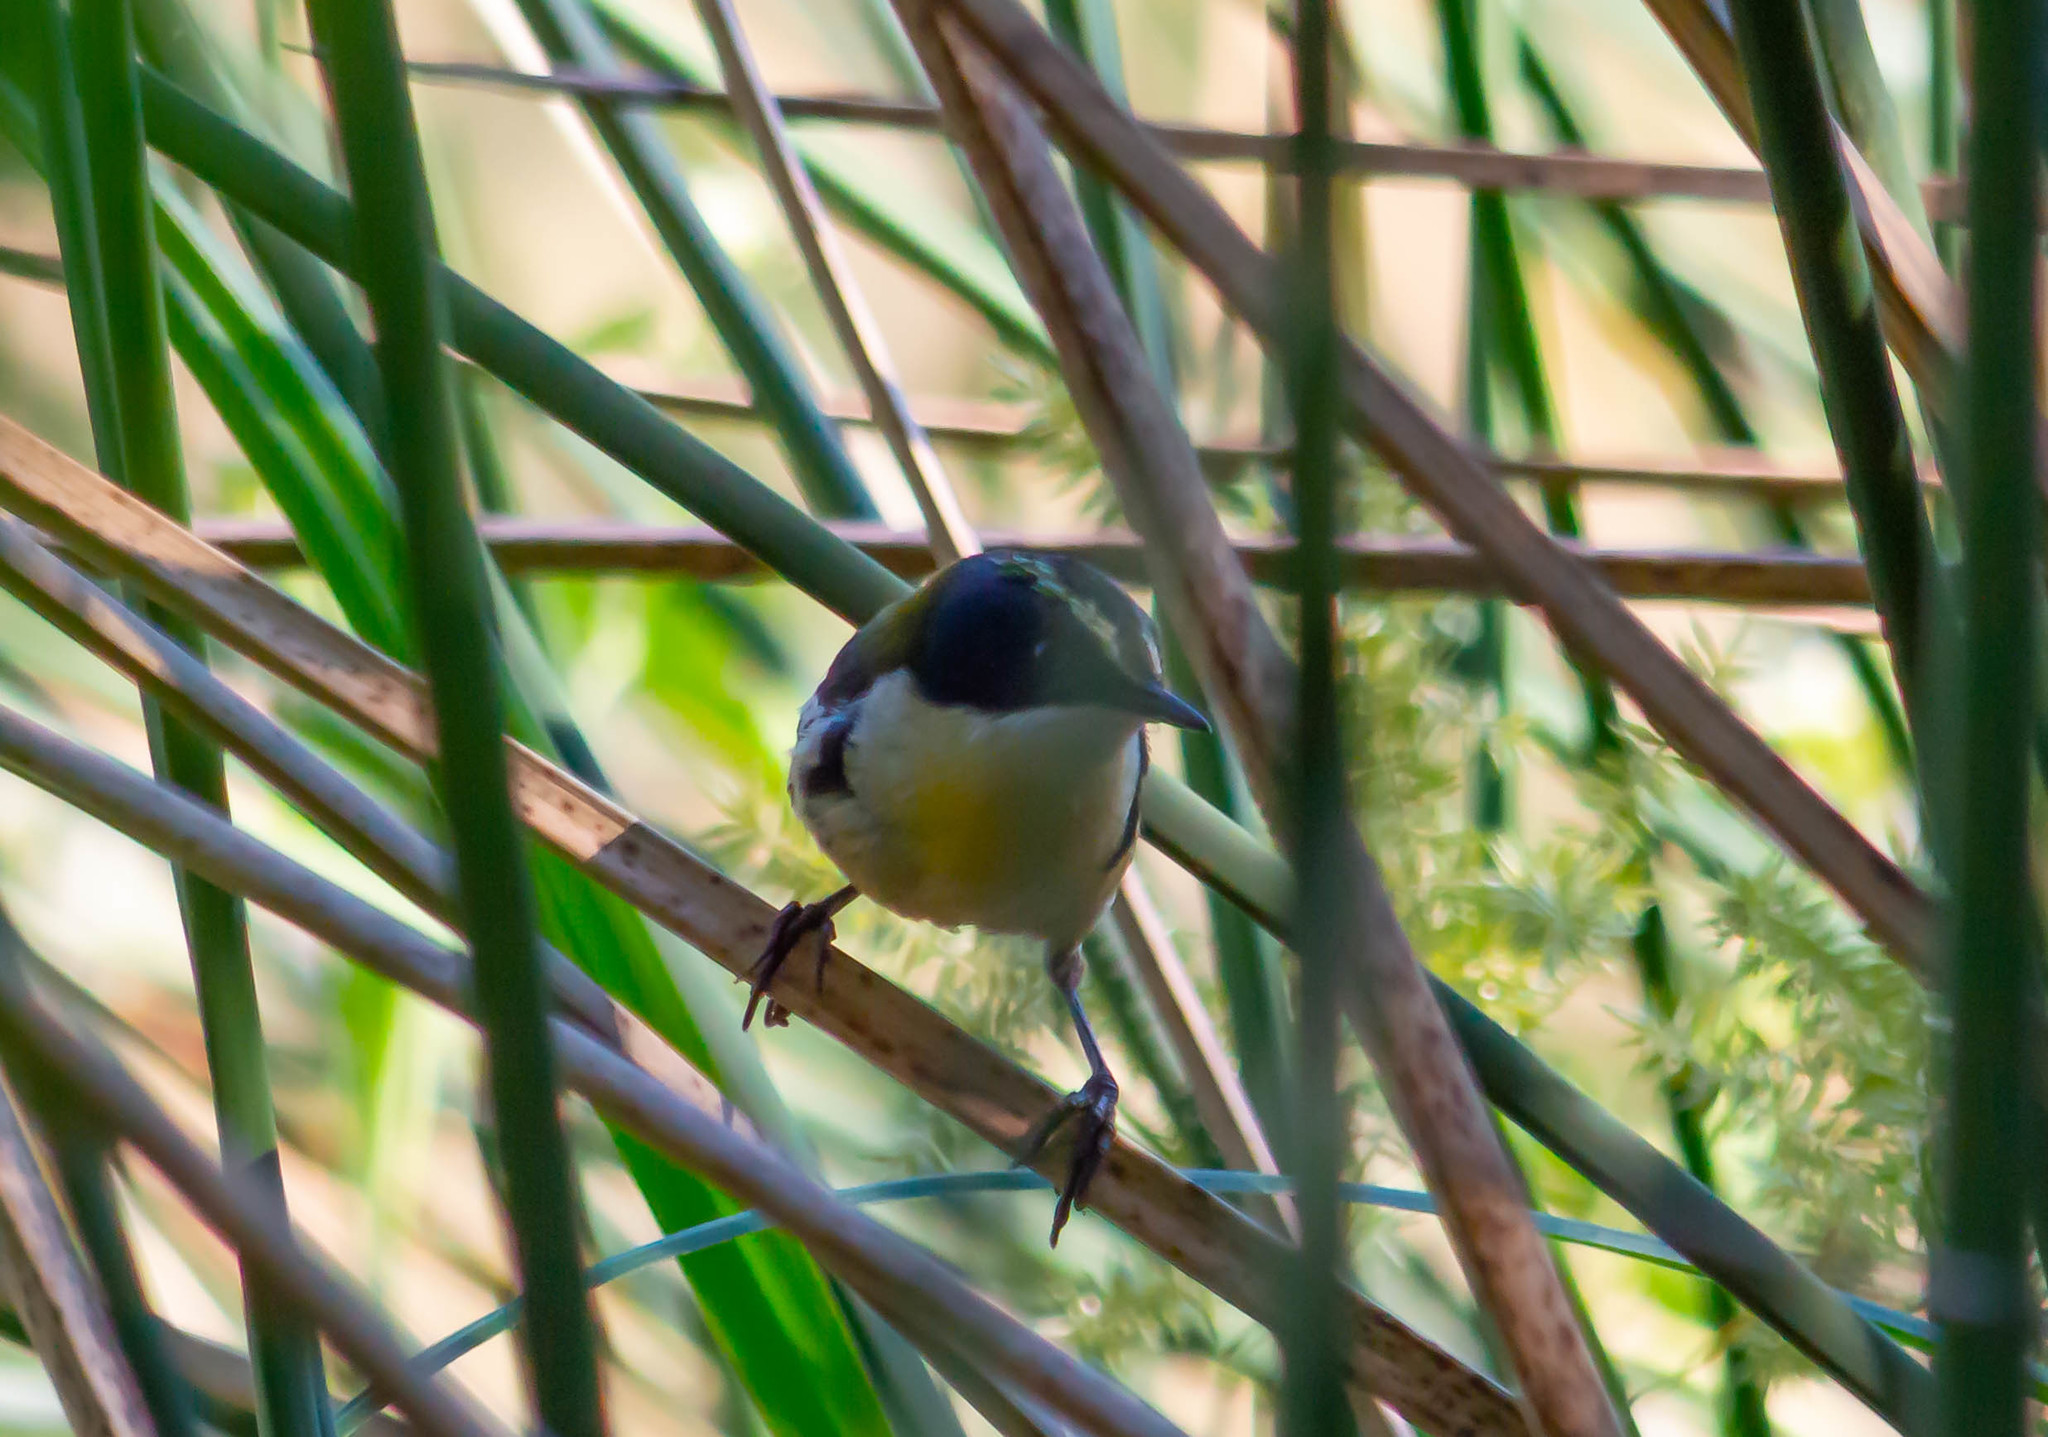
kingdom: Animalia
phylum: Chordata
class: Aves
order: Passeriformes
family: Tyrannidae
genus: Tachuris
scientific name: Tachuris rubrigastra
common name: Many-colored rush tyrant
